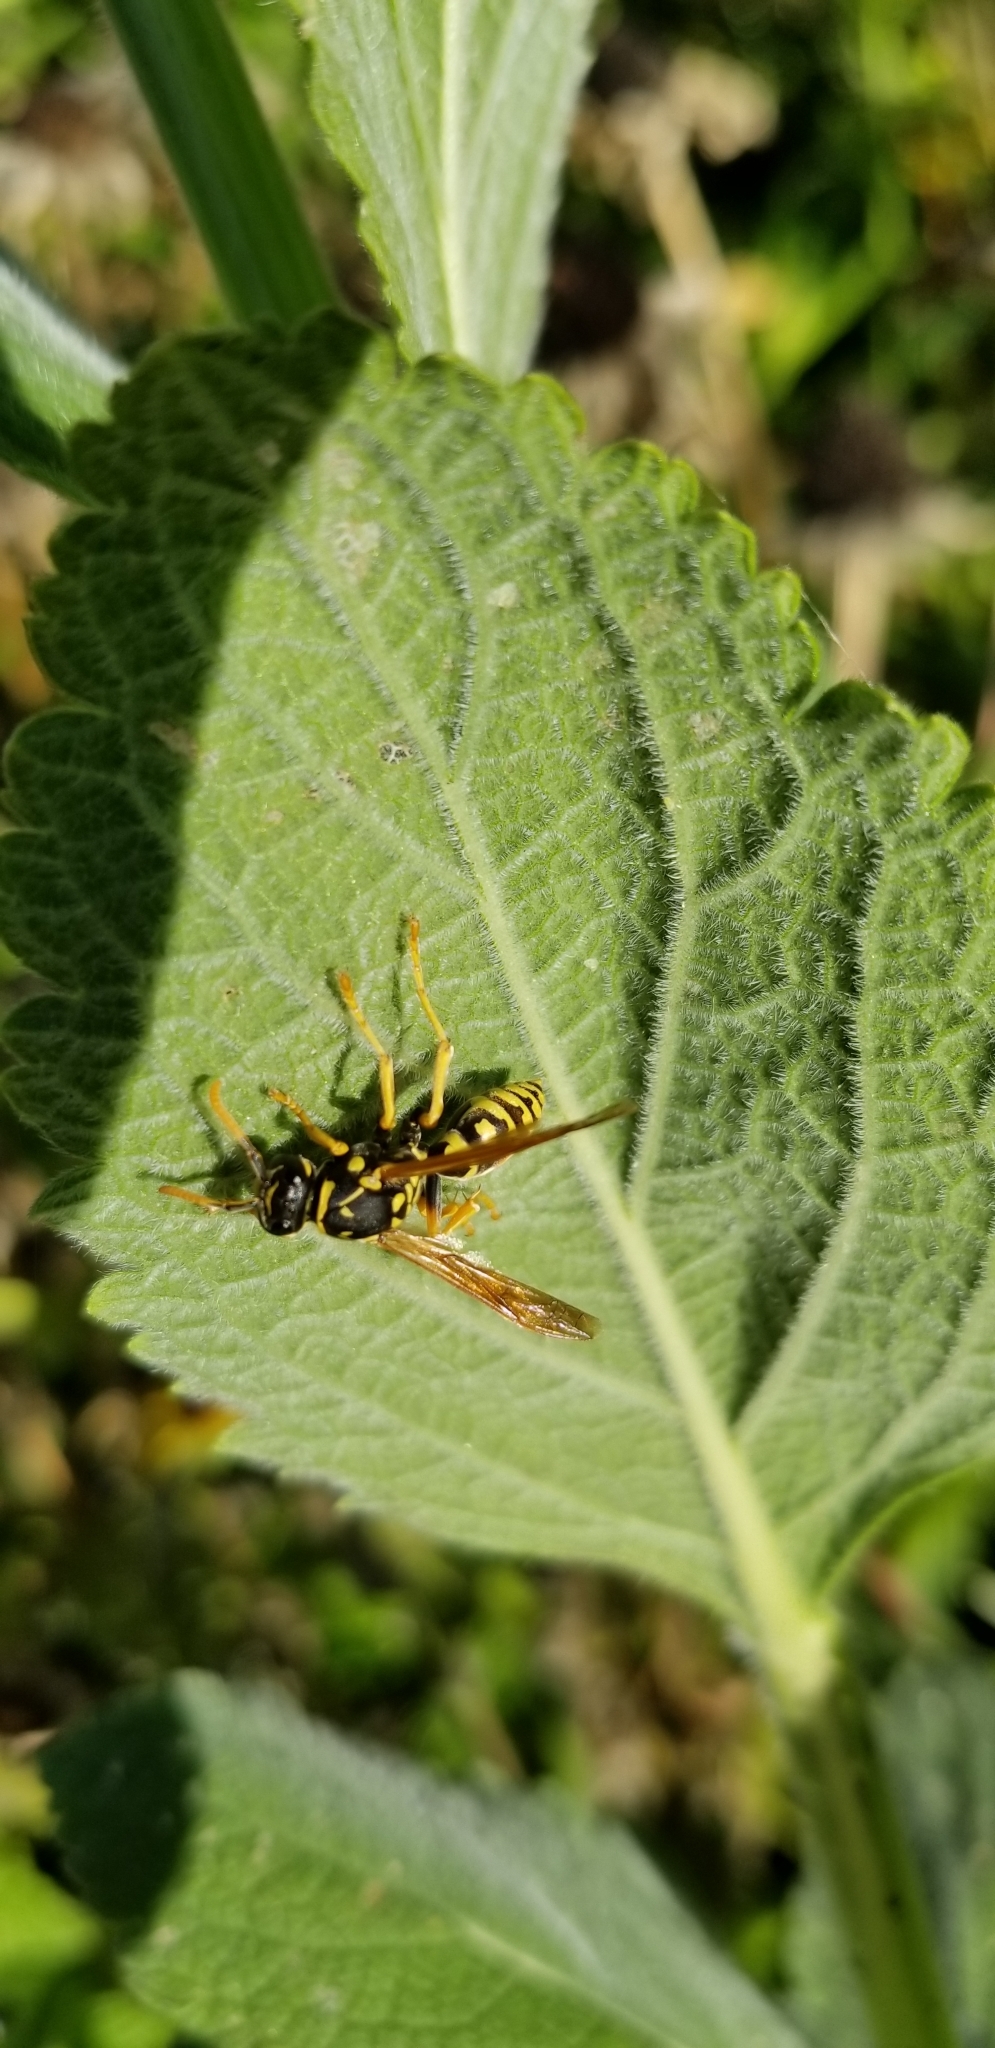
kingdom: Animalia
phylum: Arthropoda
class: Insecta
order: Hymenoptera
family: Eumenidae
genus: Polistes
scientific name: Polistes dominula
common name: Paper wasp
